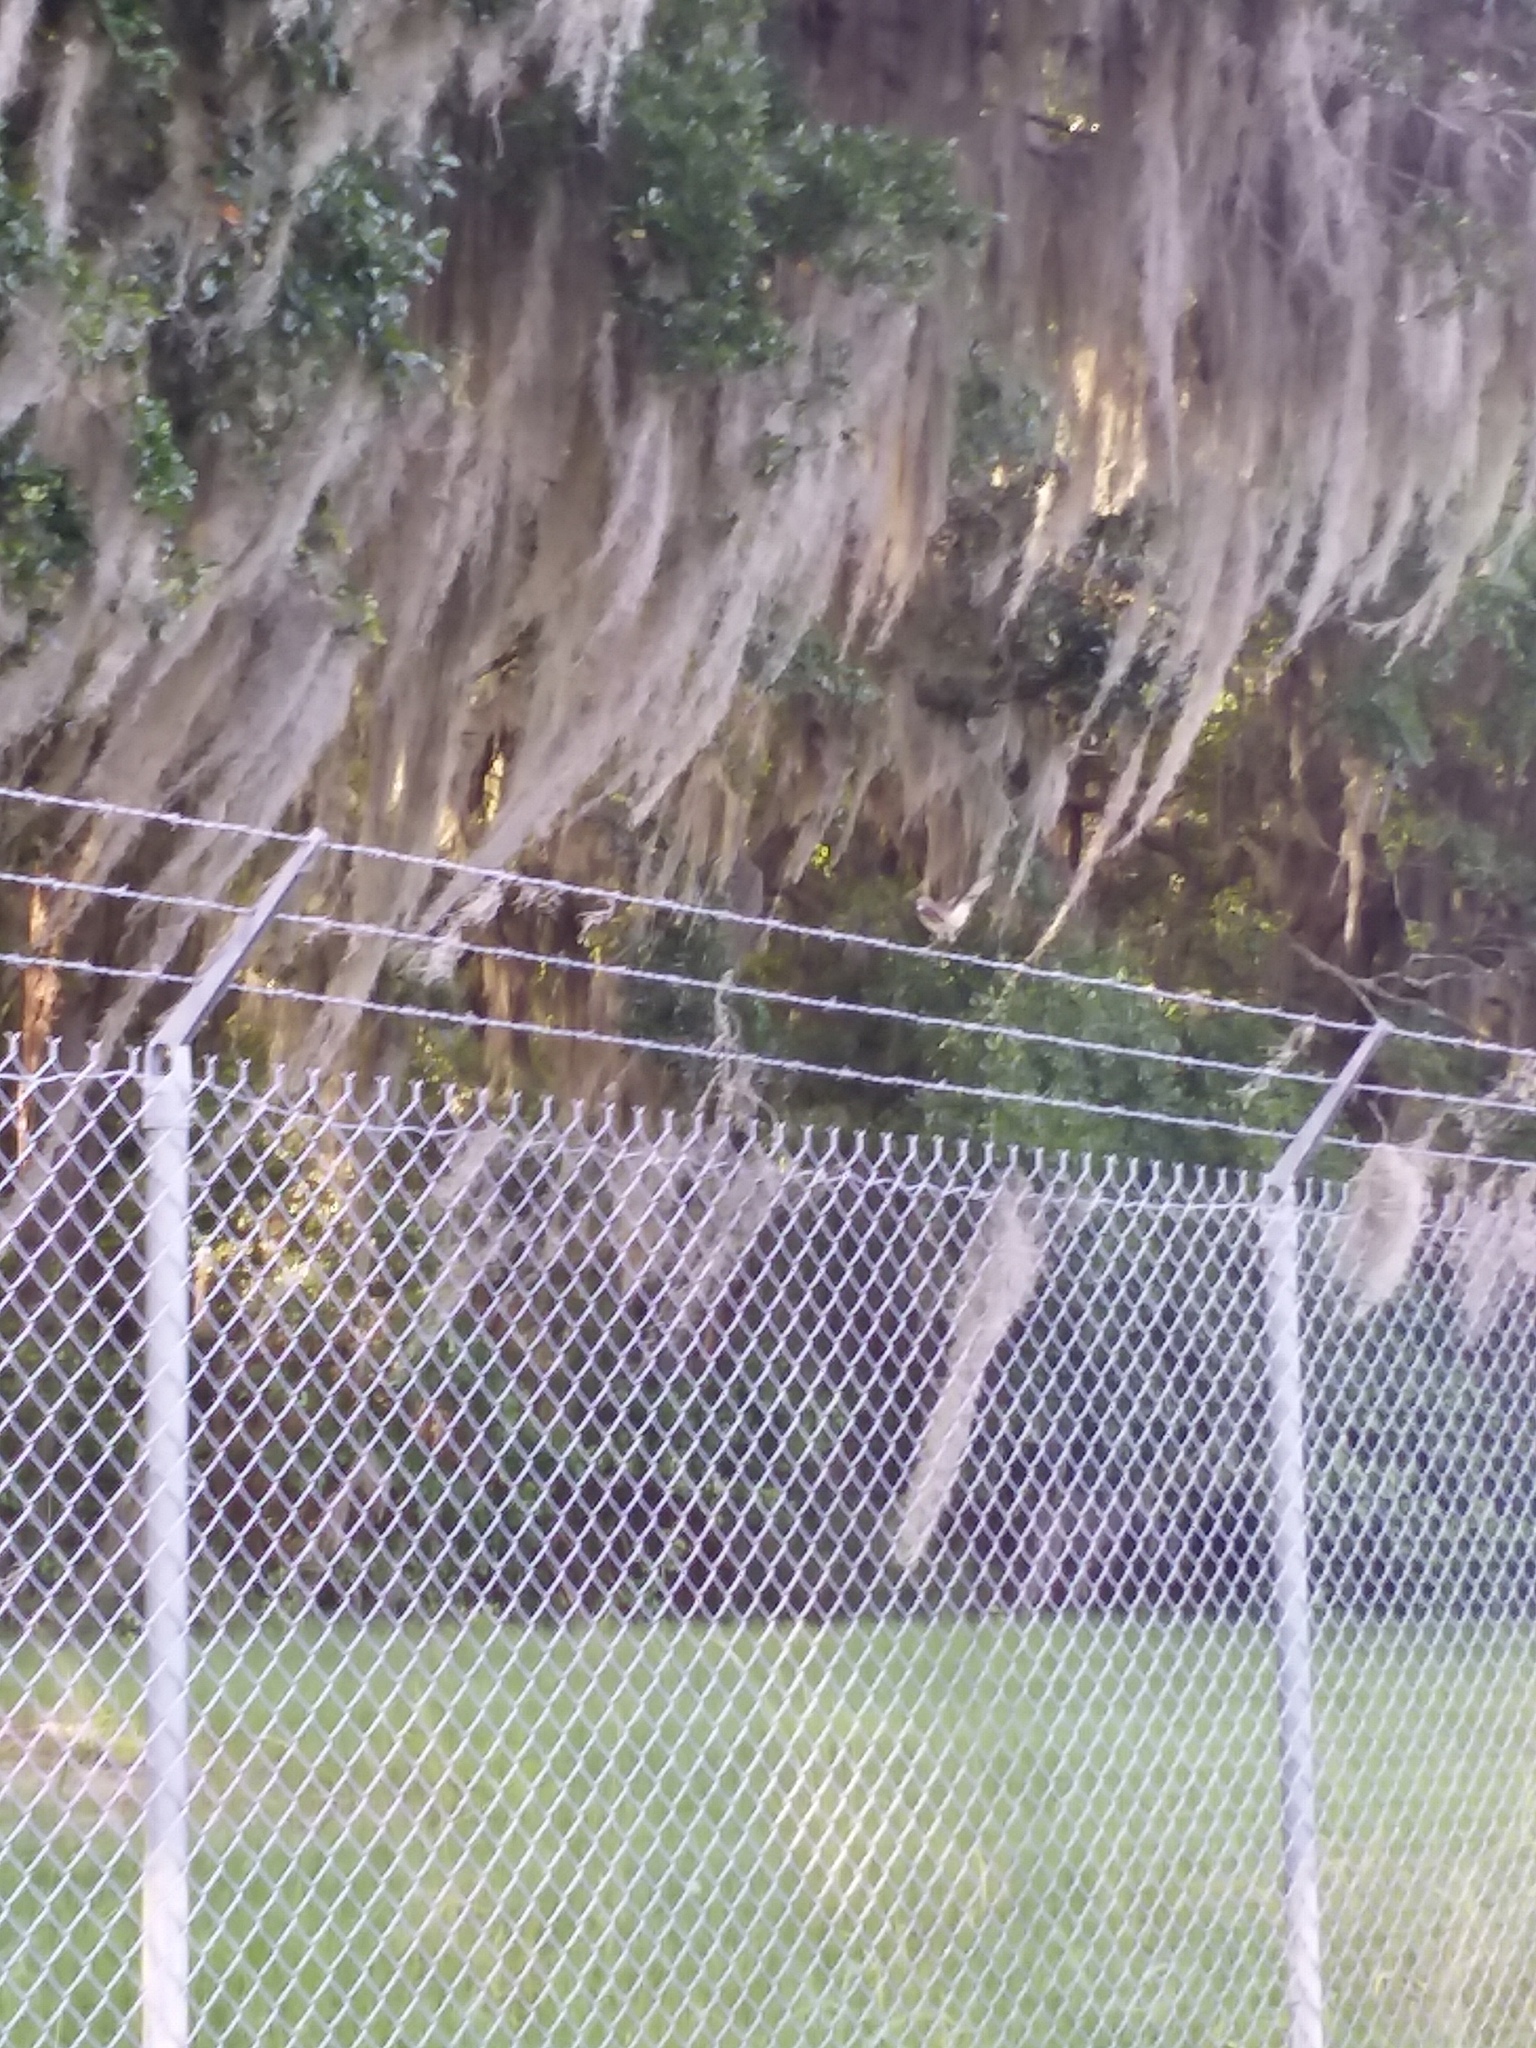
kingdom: Animalia
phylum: Chordata
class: Aves
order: Passeriformes
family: Mimidae
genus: Mimus
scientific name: Mimus polyglottos
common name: Northern mockingbird
